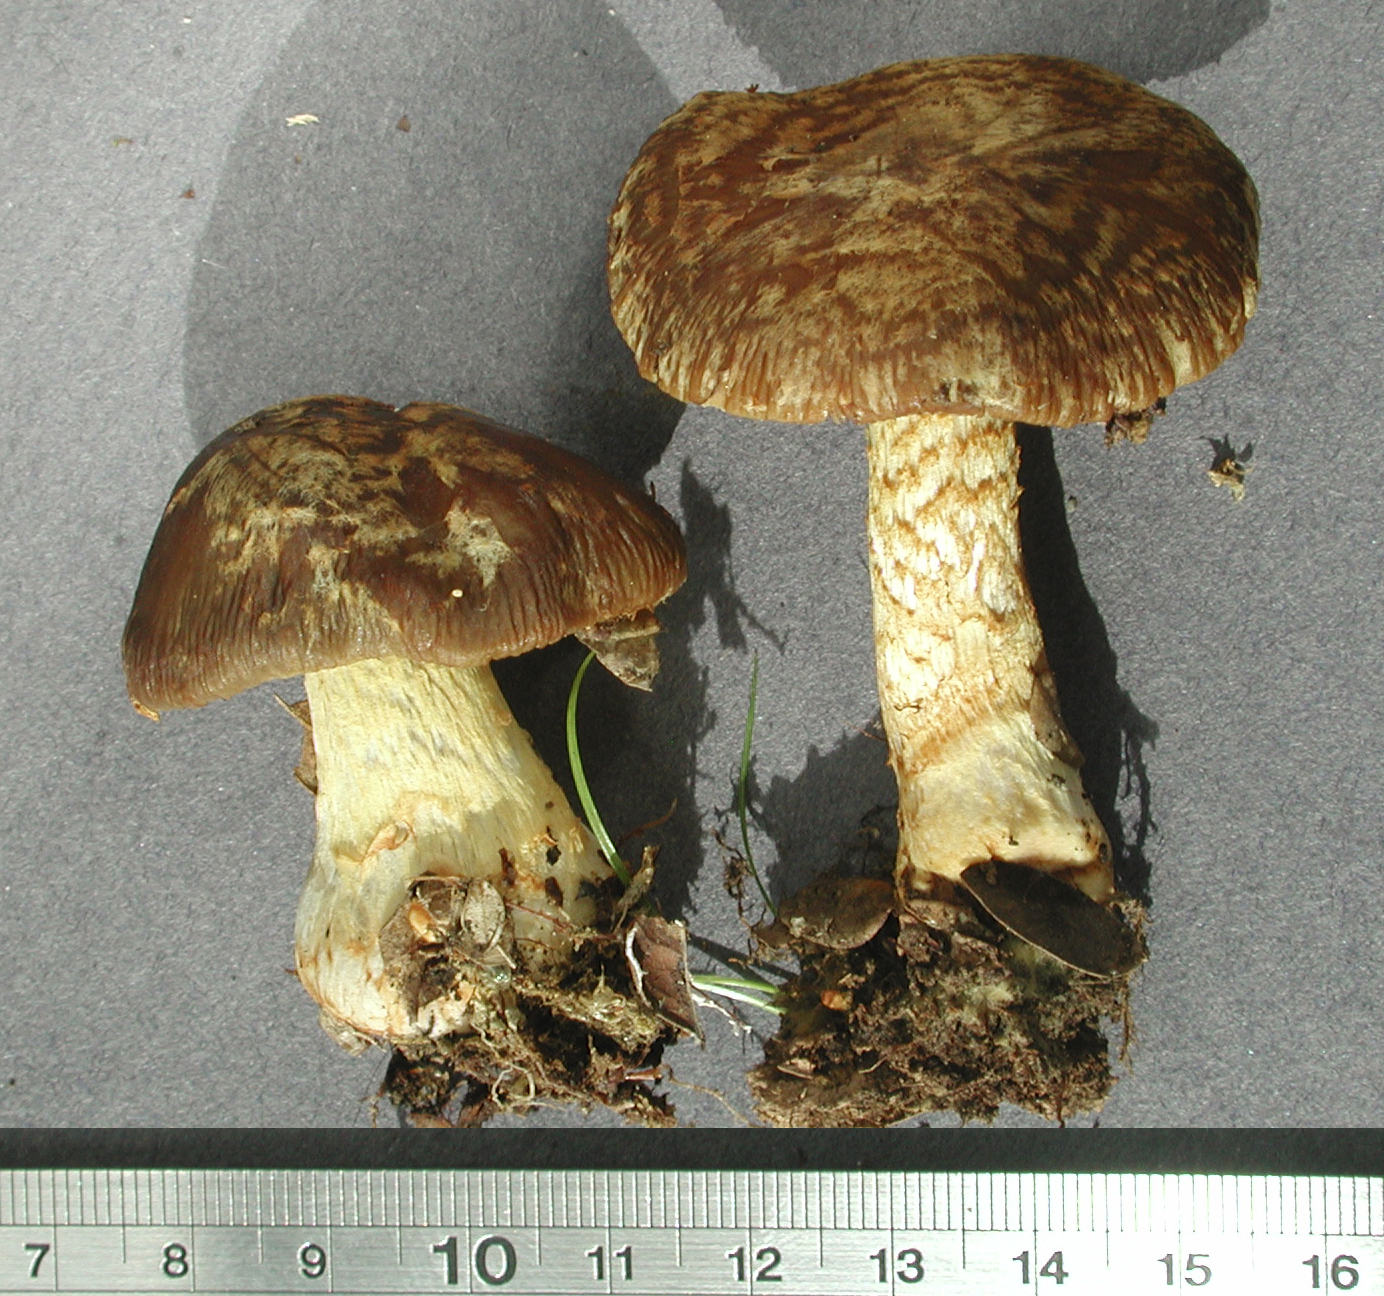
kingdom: Fungi
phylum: Basidiomycota
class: Agaricomycetes
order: Agaricales
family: Cortinariaceae
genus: Cortinarius
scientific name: Cortinarius elaiochrous
